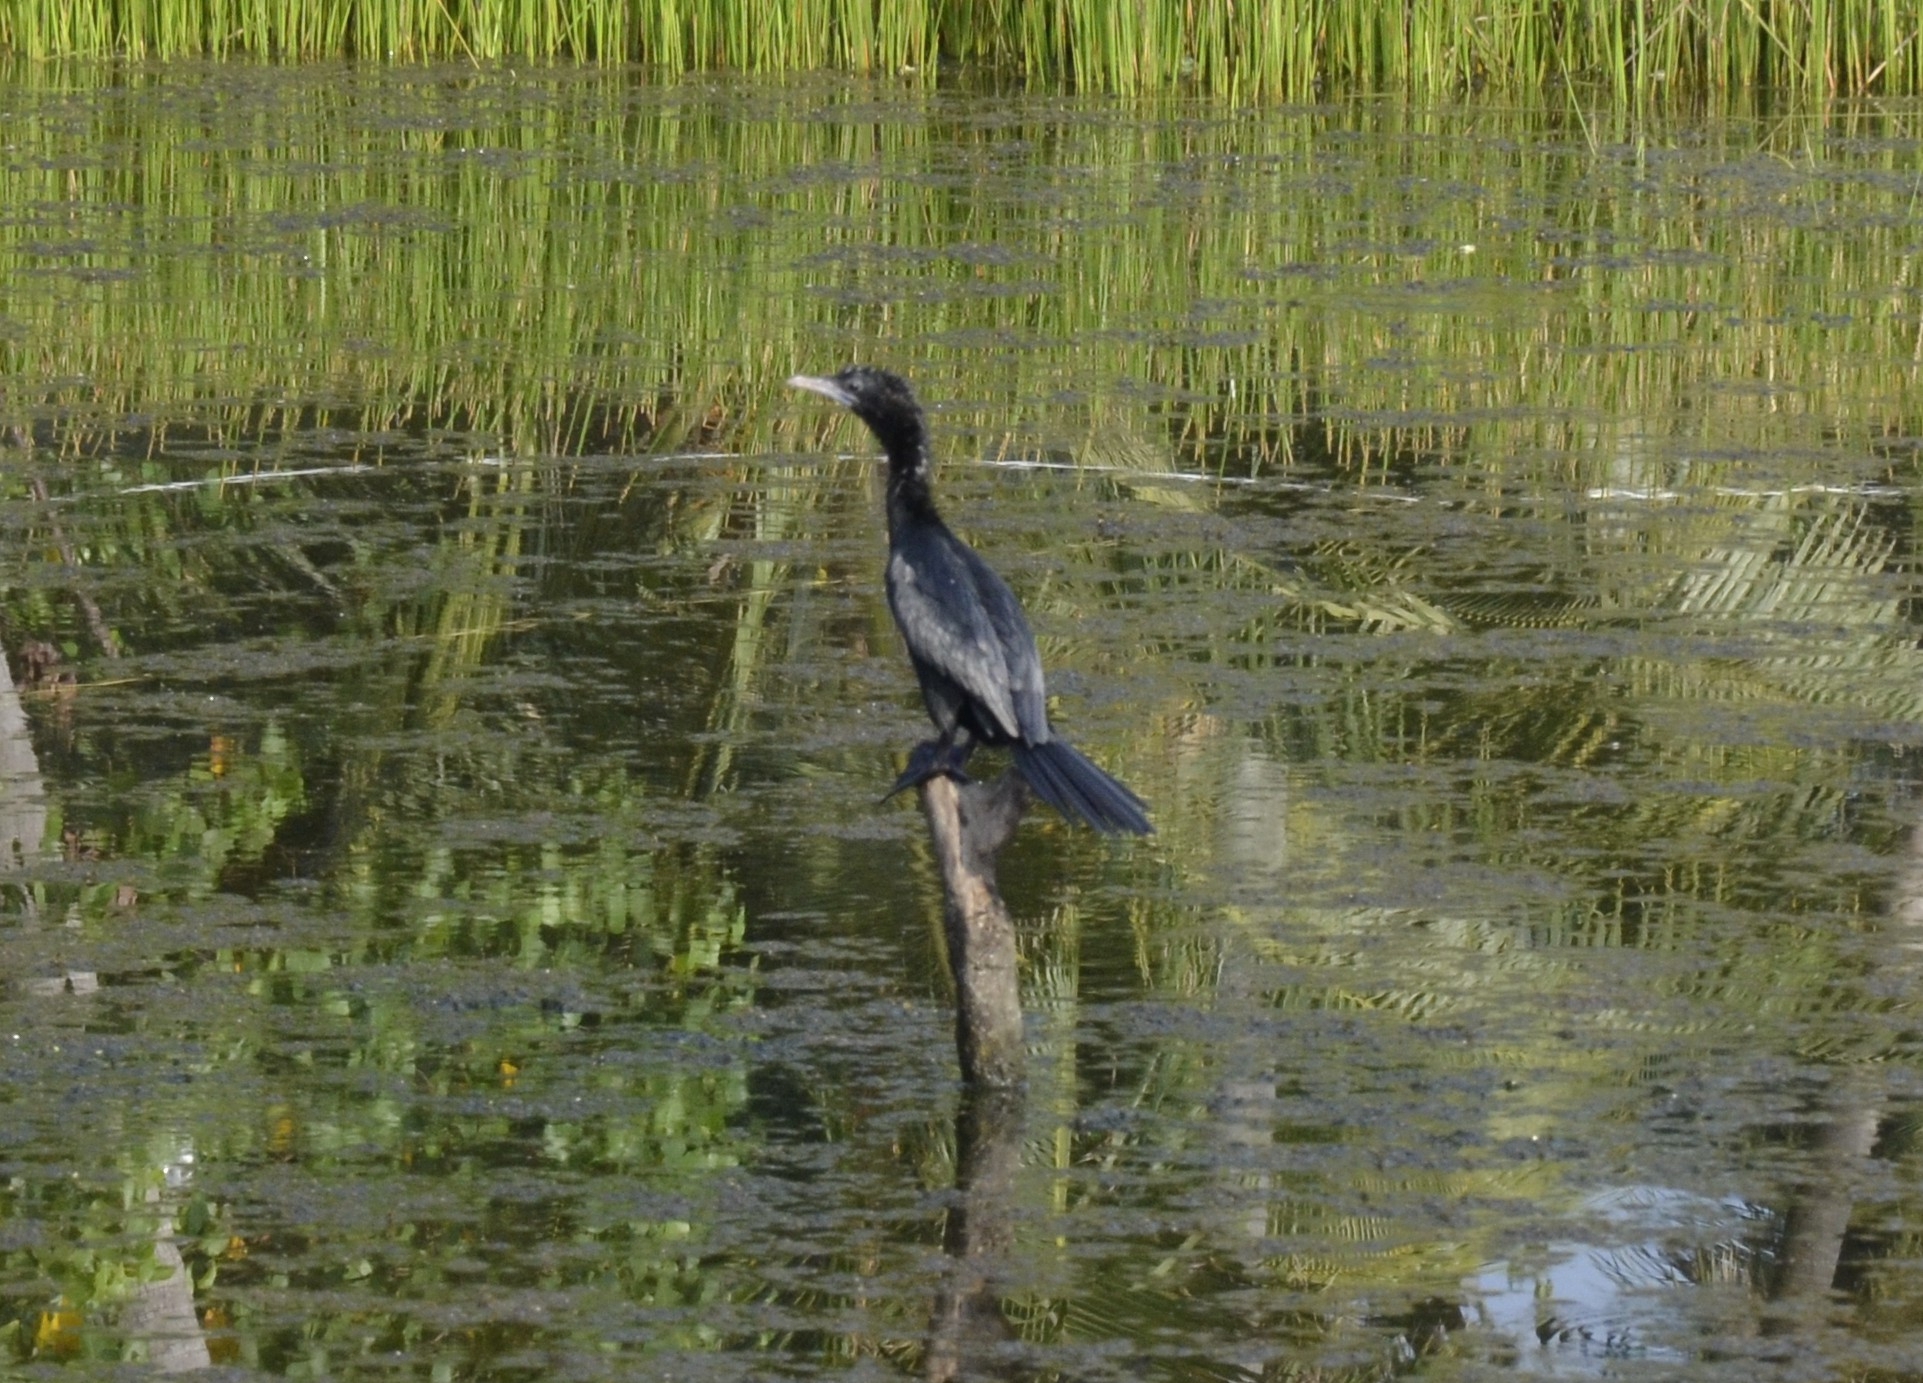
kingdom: Animalia
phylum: Chordata
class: Aves
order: Suliformes
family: Phalacrocoracidae
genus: Microcarbo
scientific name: Microcarbo niger
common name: Little cormorant
